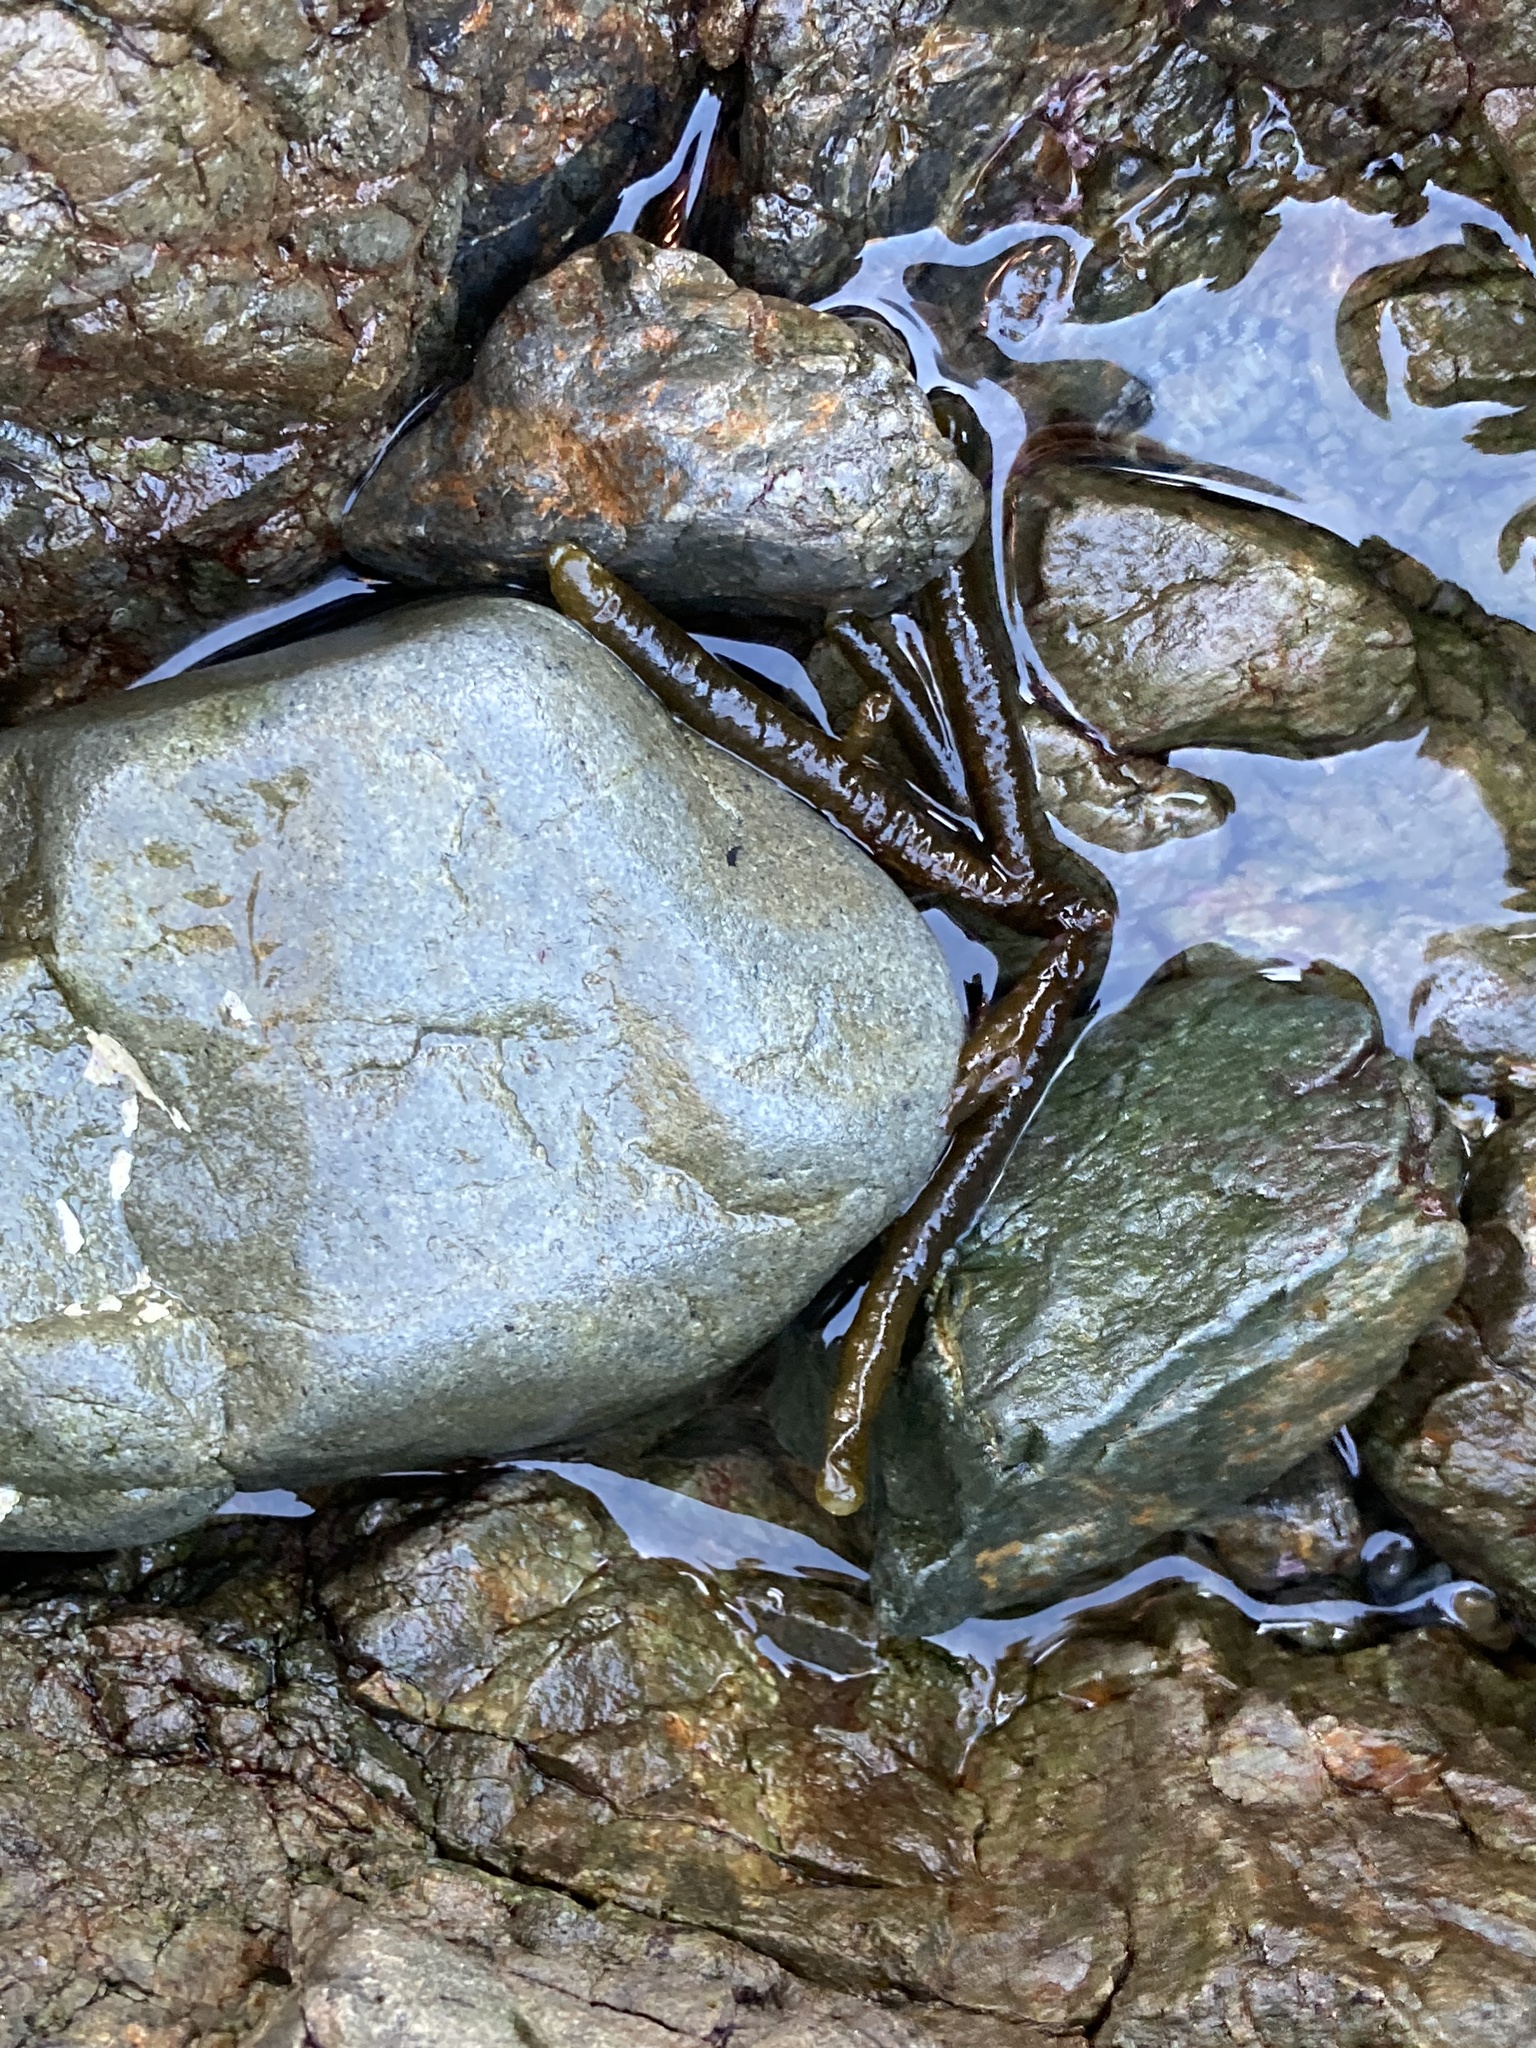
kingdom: Plantae
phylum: Chlorophyta
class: Ulvophyceae
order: Bryopsidales
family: Codiaceae
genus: Codium
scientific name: Codium fragile
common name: Dead man's fingers
